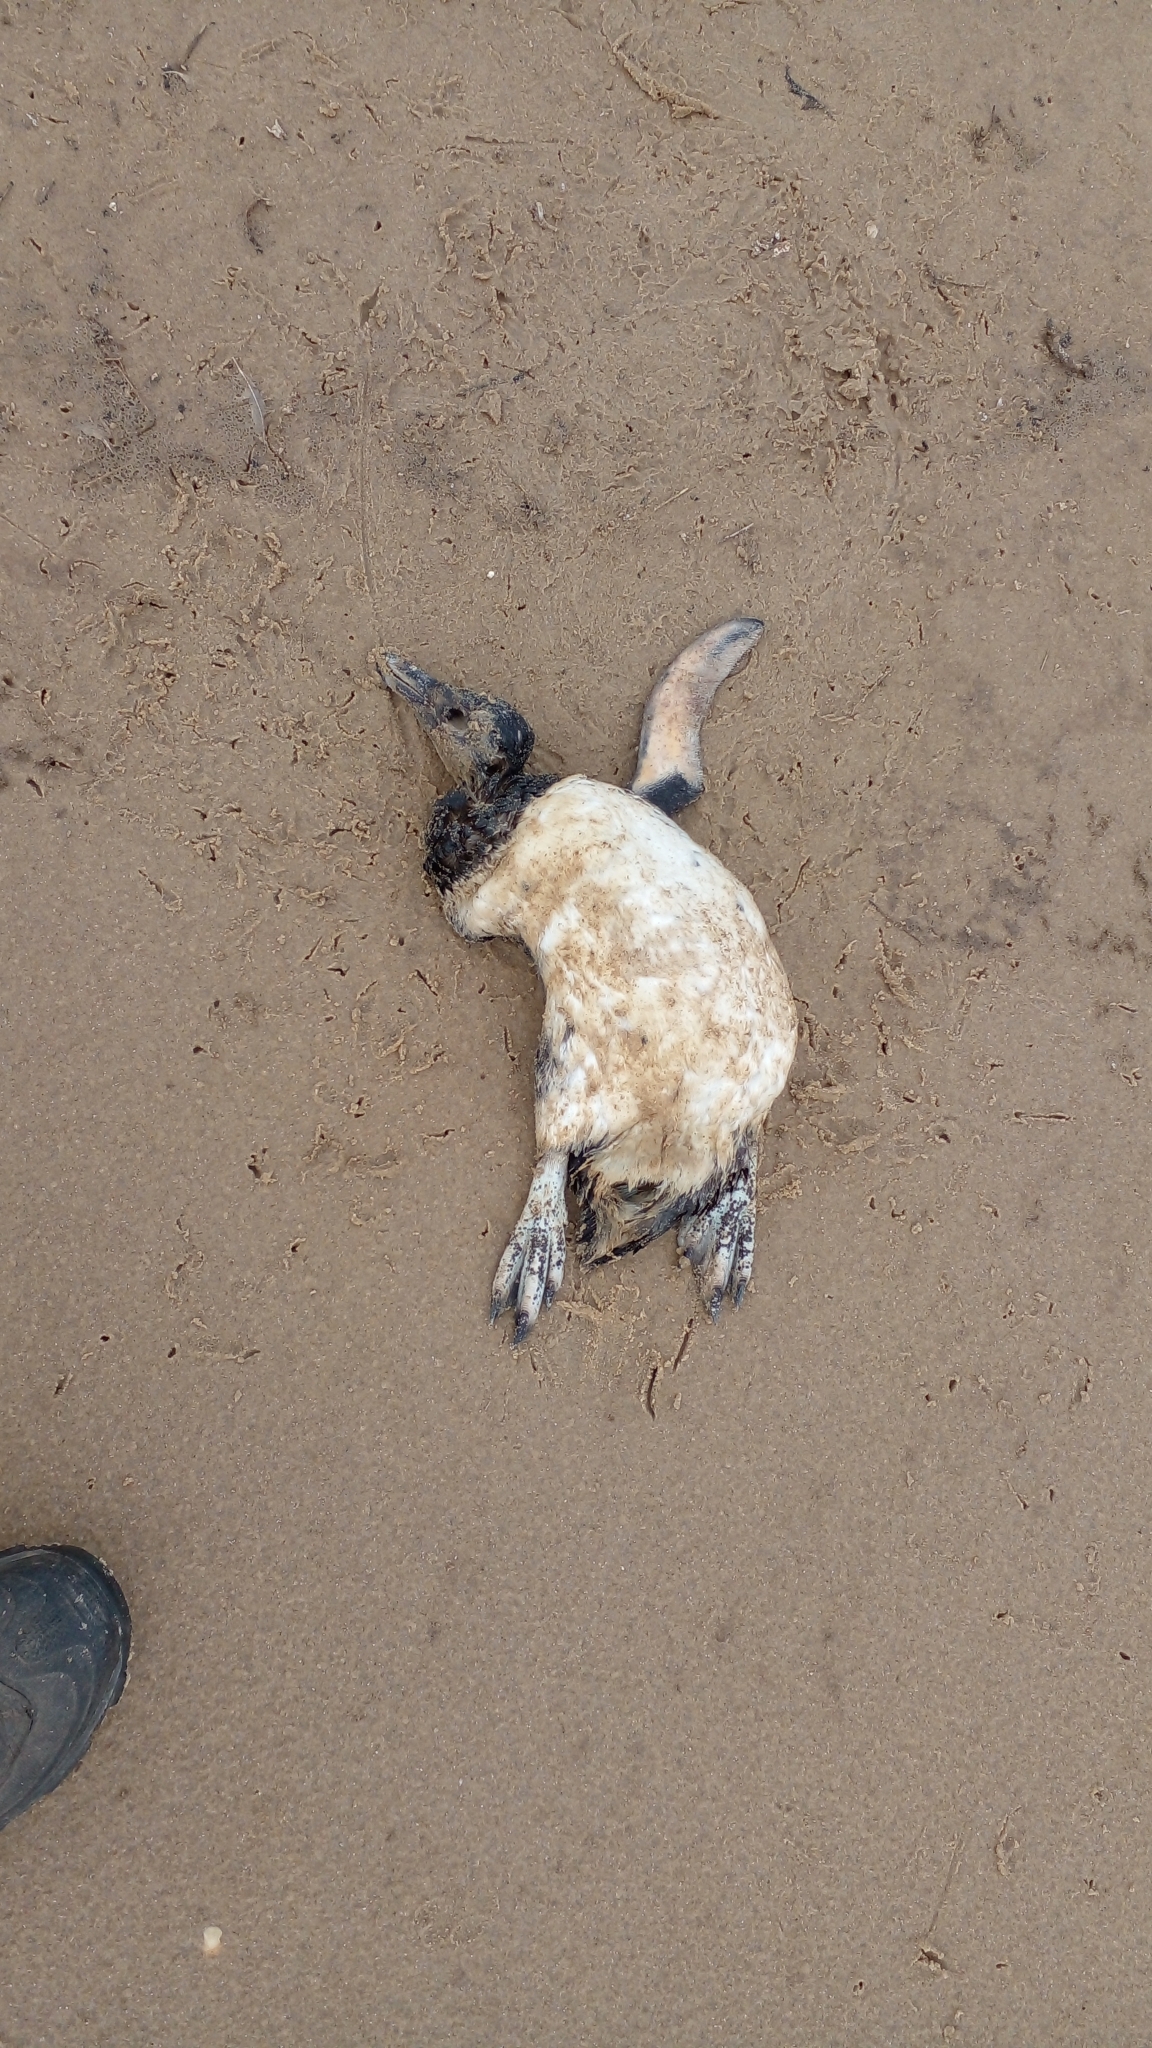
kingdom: Animalia
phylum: Chordata
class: Aves
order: Sphenisciformes
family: Spheniscidae
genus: Spheniscus
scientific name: Spheniscus magellanicus
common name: Magellanic penguin
